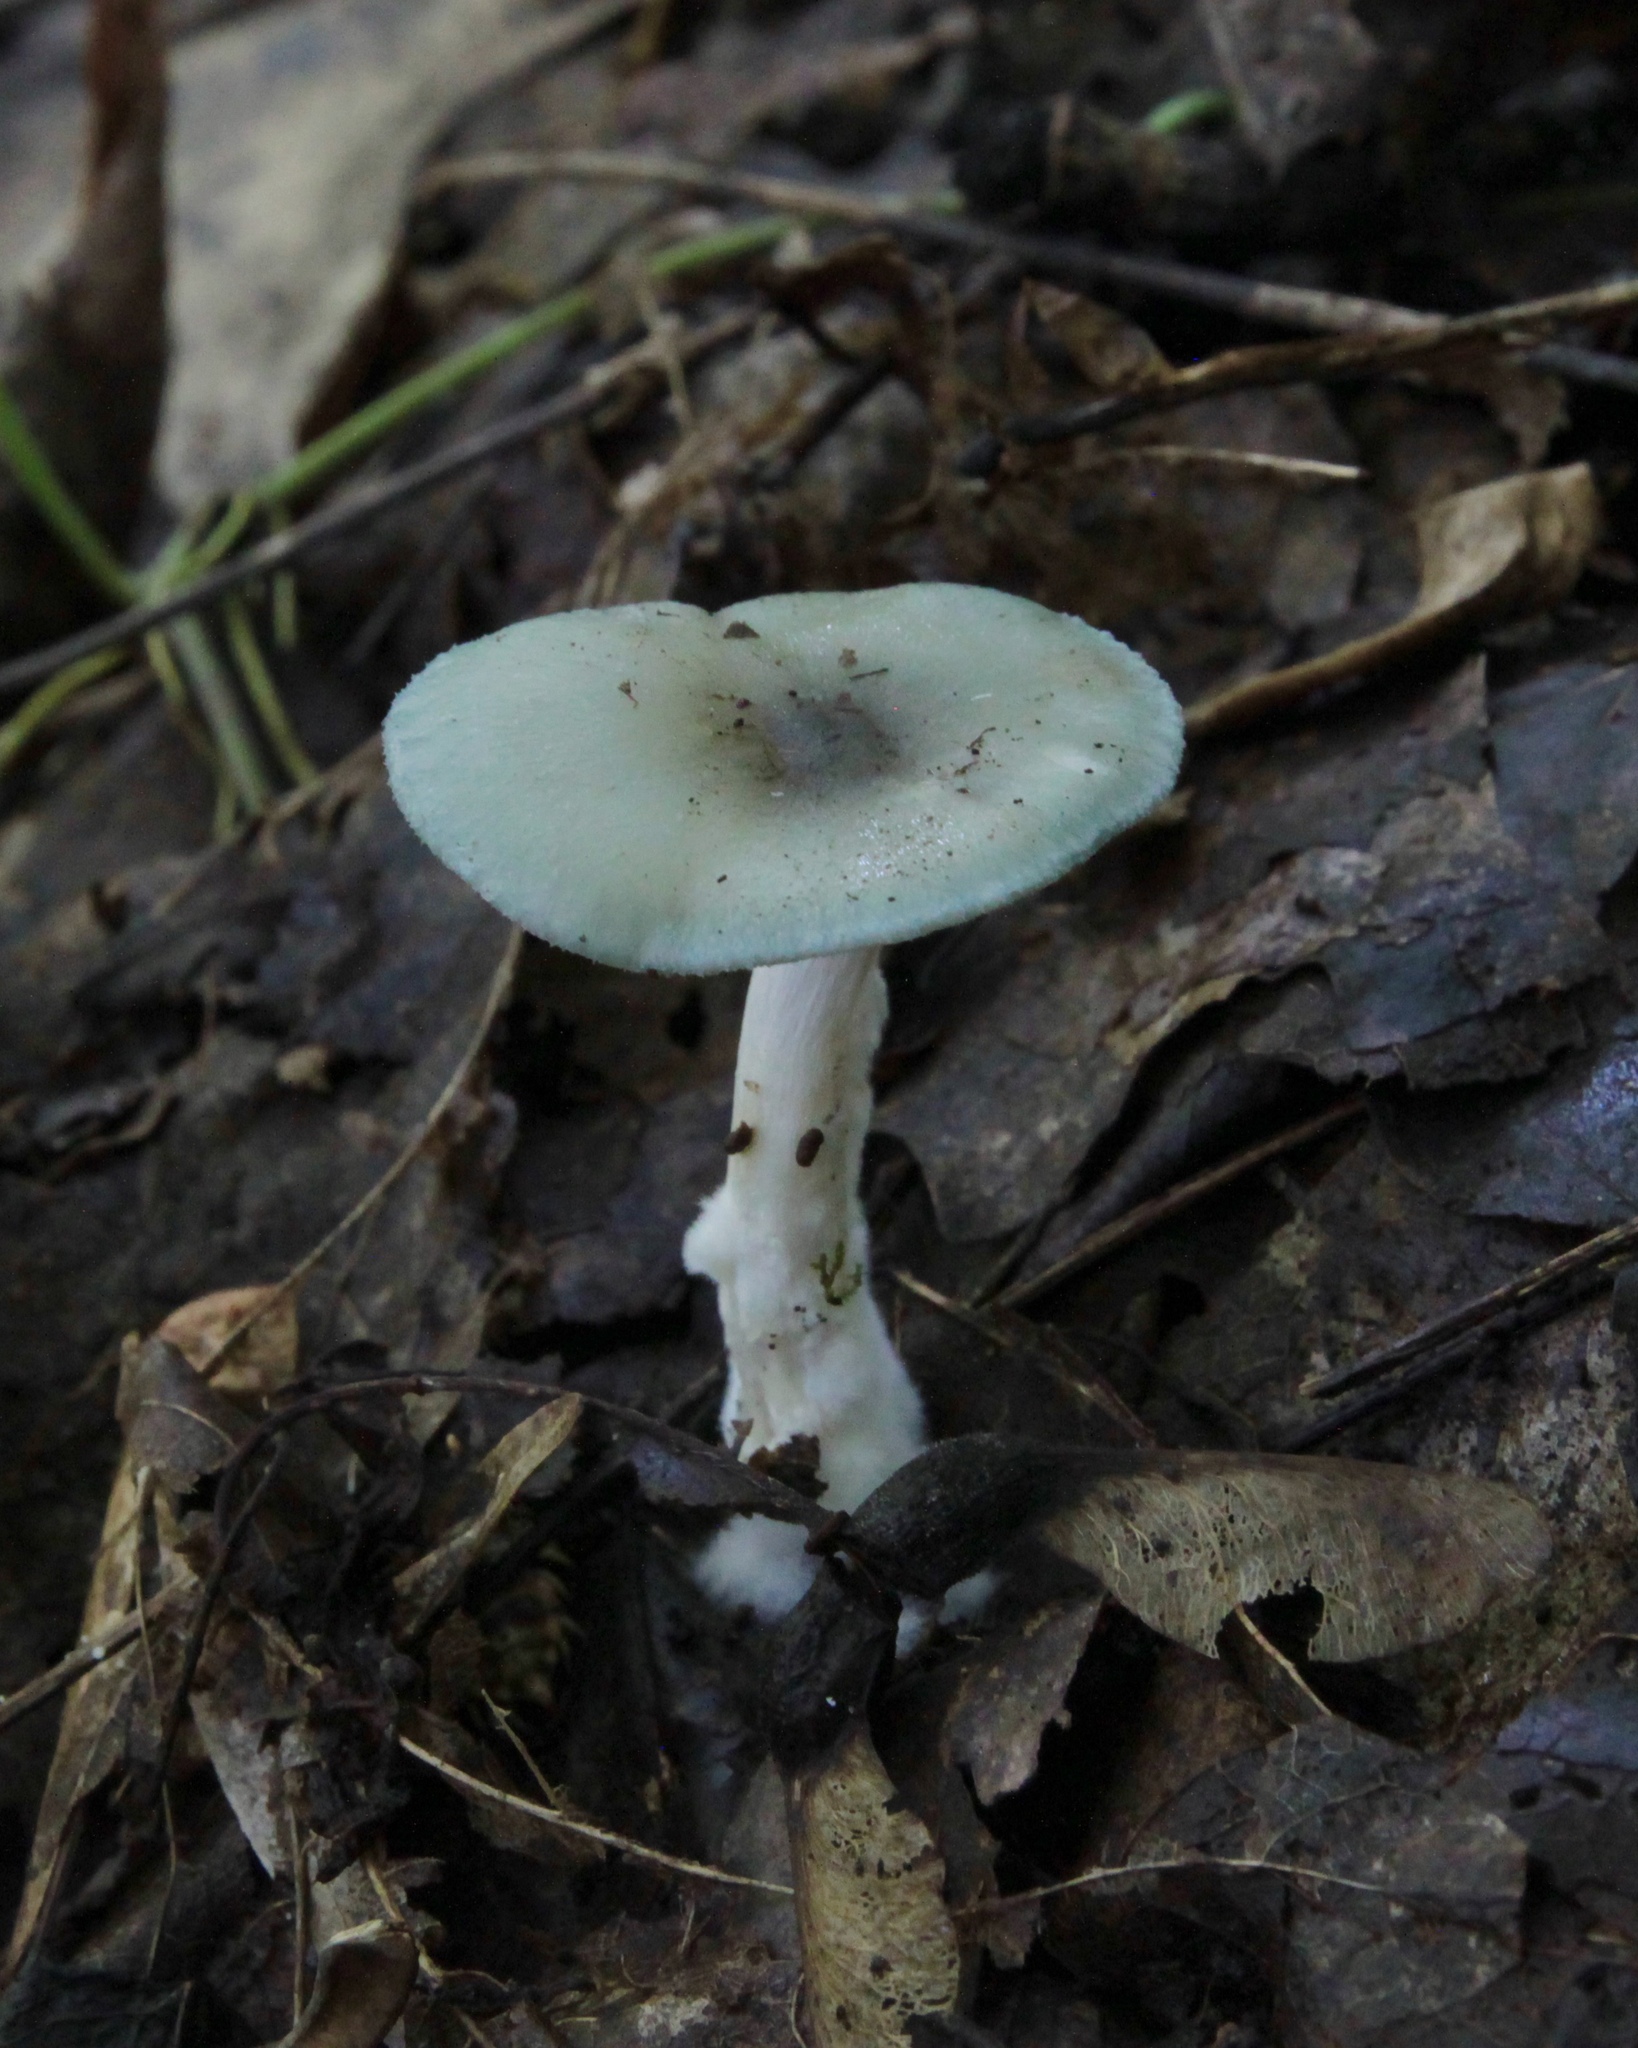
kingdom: Fungi
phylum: Basidiomycota
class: Agaricomycetes
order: Agaricales
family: Tricholomataceae
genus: Collybia
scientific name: Collybia
